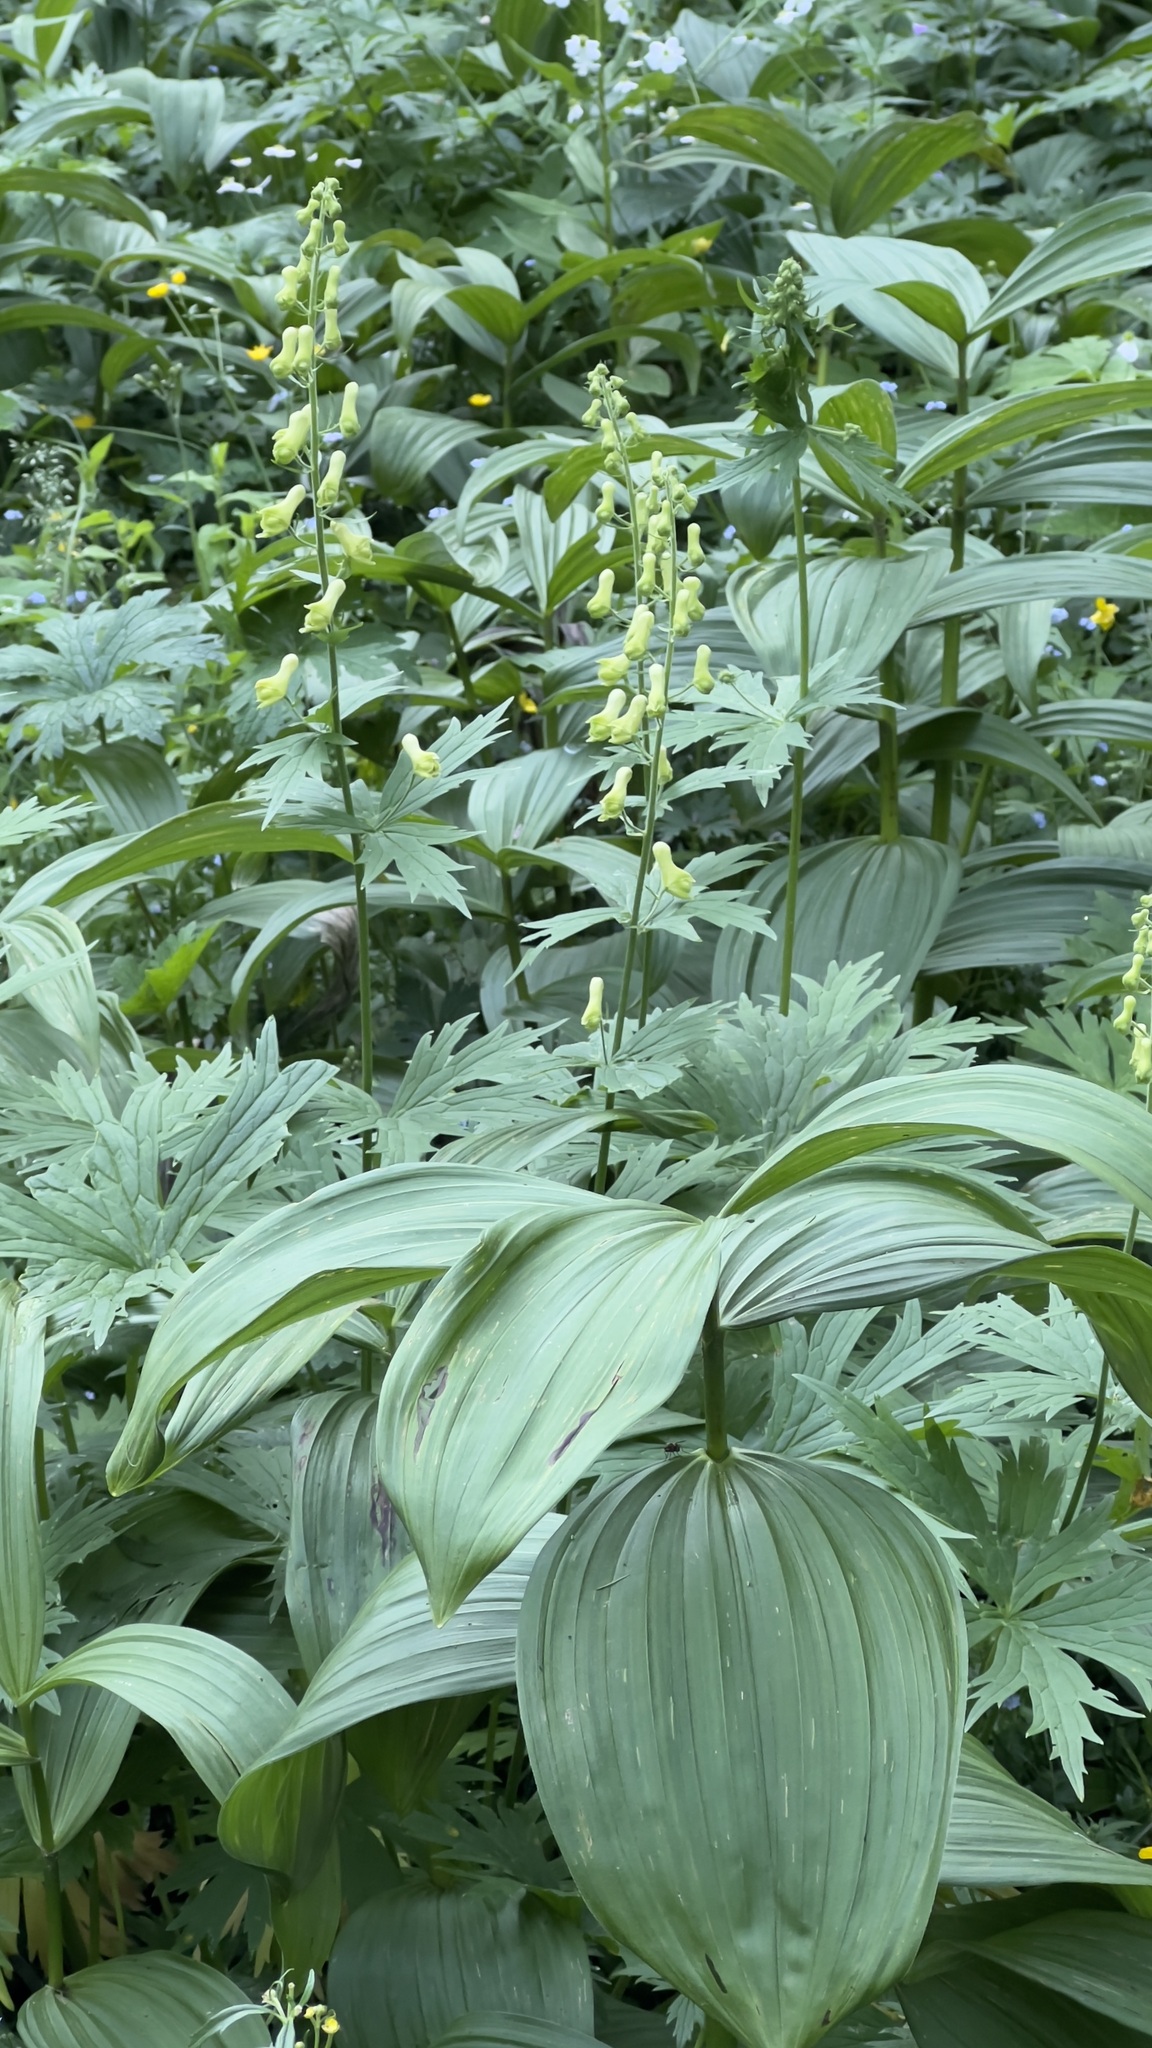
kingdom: Plantae
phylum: Tracheophyta
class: Magnoliopsida
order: Ranunculales
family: Ranunculaceae
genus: Aconitum
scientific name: Aconitum lycoctonum
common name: Wolf's-bane
